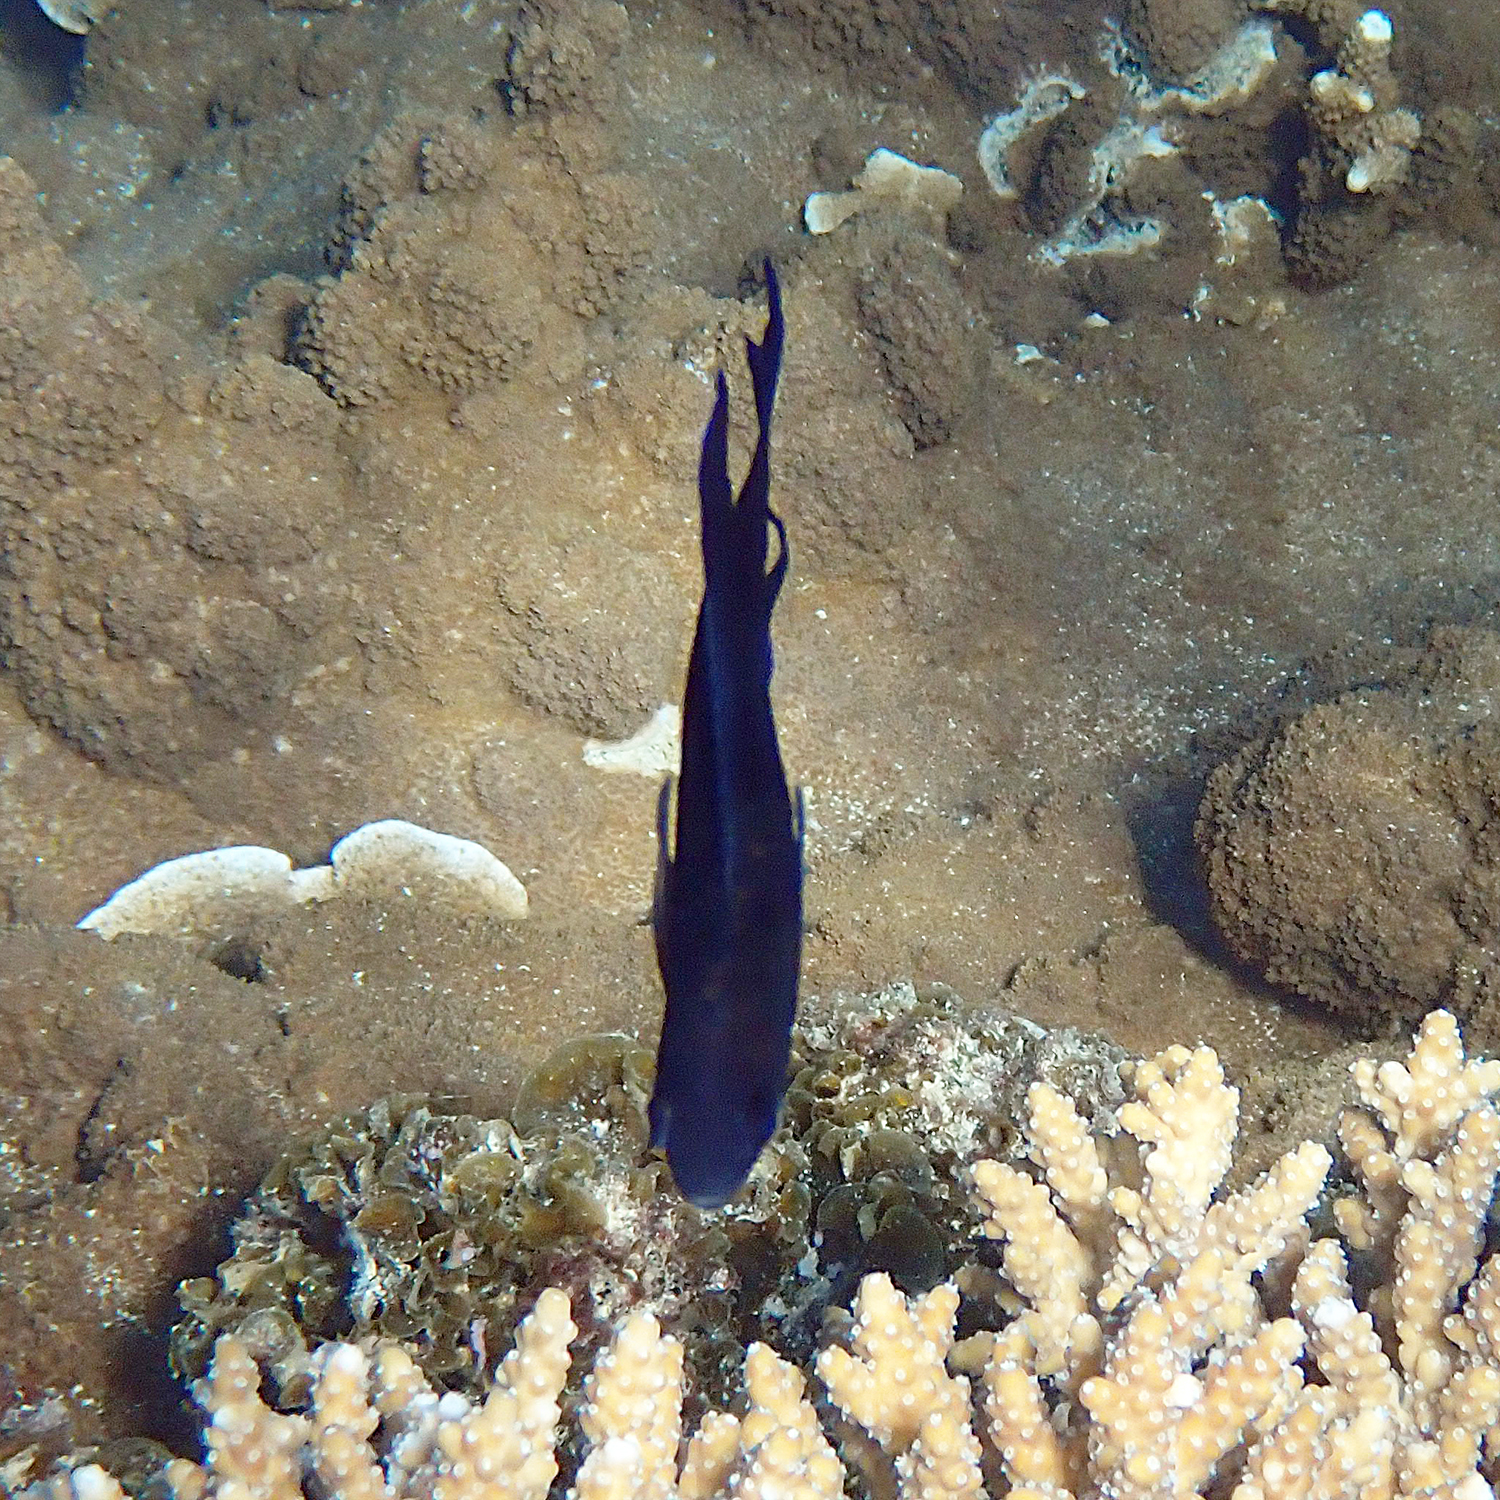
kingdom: Animalia
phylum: Chordata
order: Perciformes
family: Pomacentridae
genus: Chrysiptera
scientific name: Chrysiptera notialis
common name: Southern demoiselle
